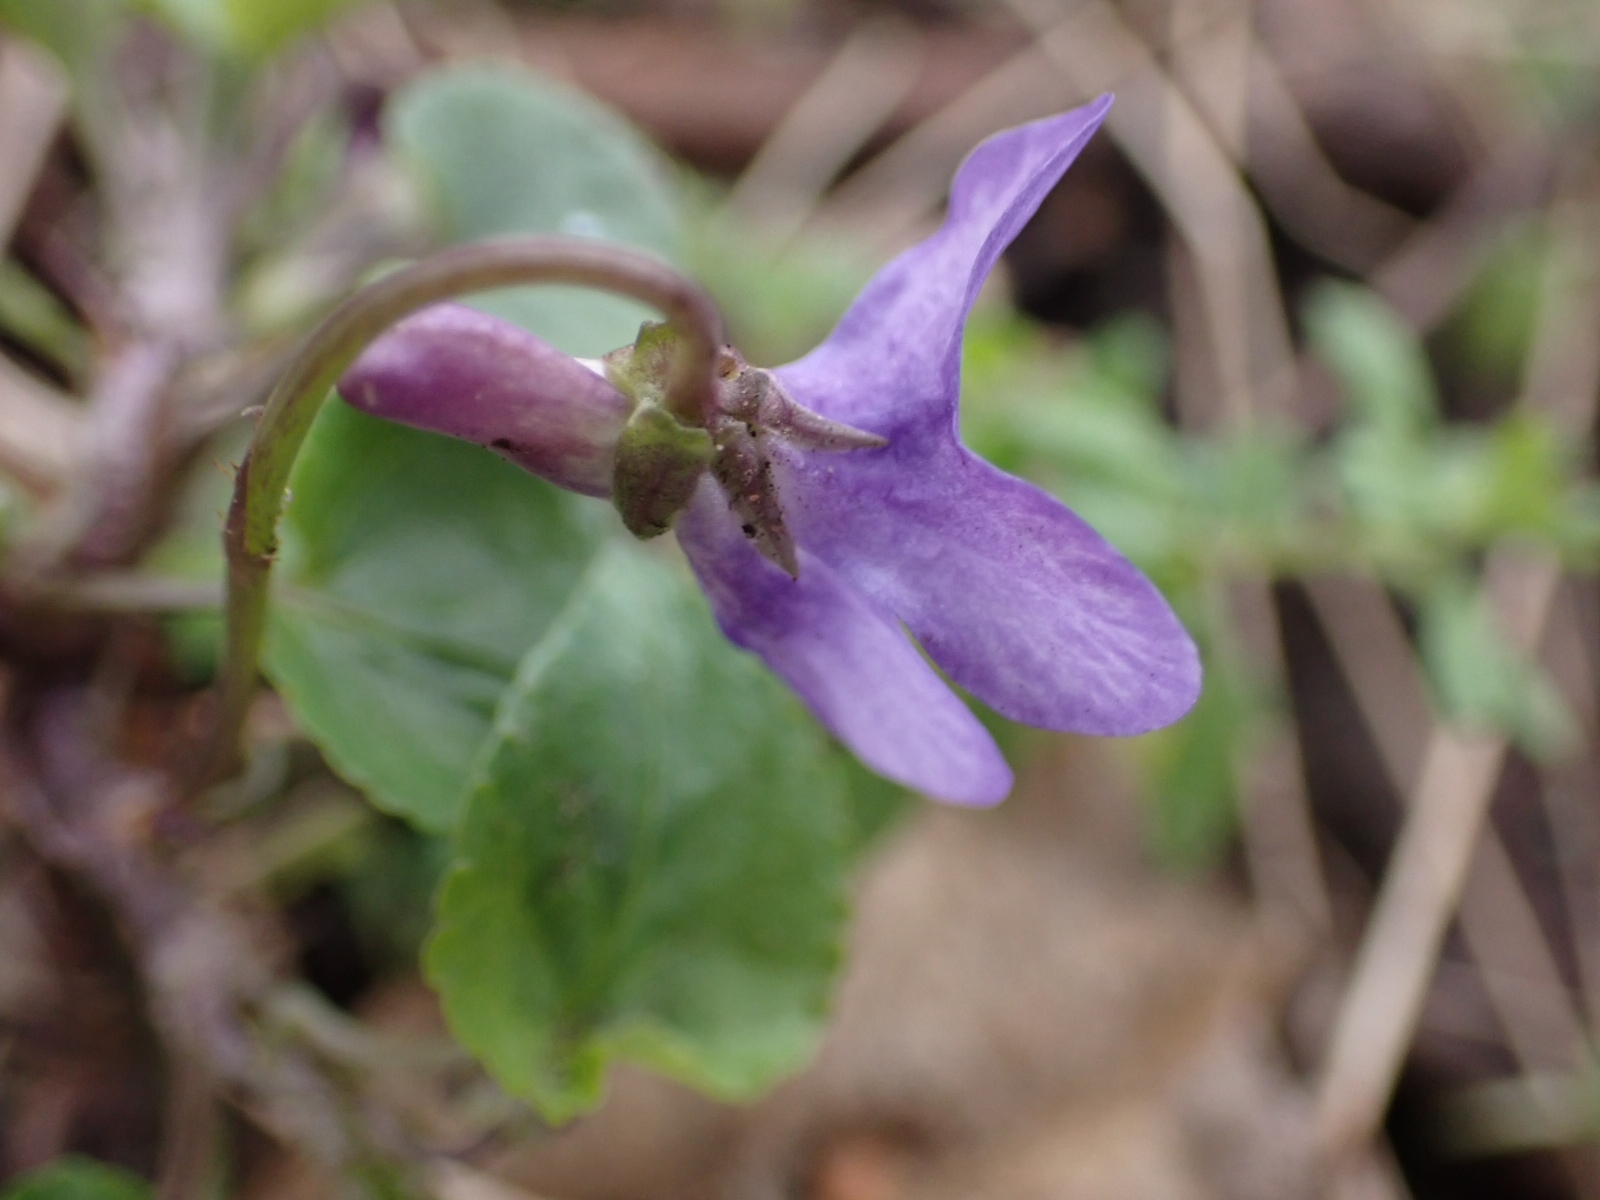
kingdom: Plantae
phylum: Tracheophyta
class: Magnoliopsida
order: Malpighiales
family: Violaceae
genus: Viola
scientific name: Viola reichenbachiana
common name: Early dog-violet
